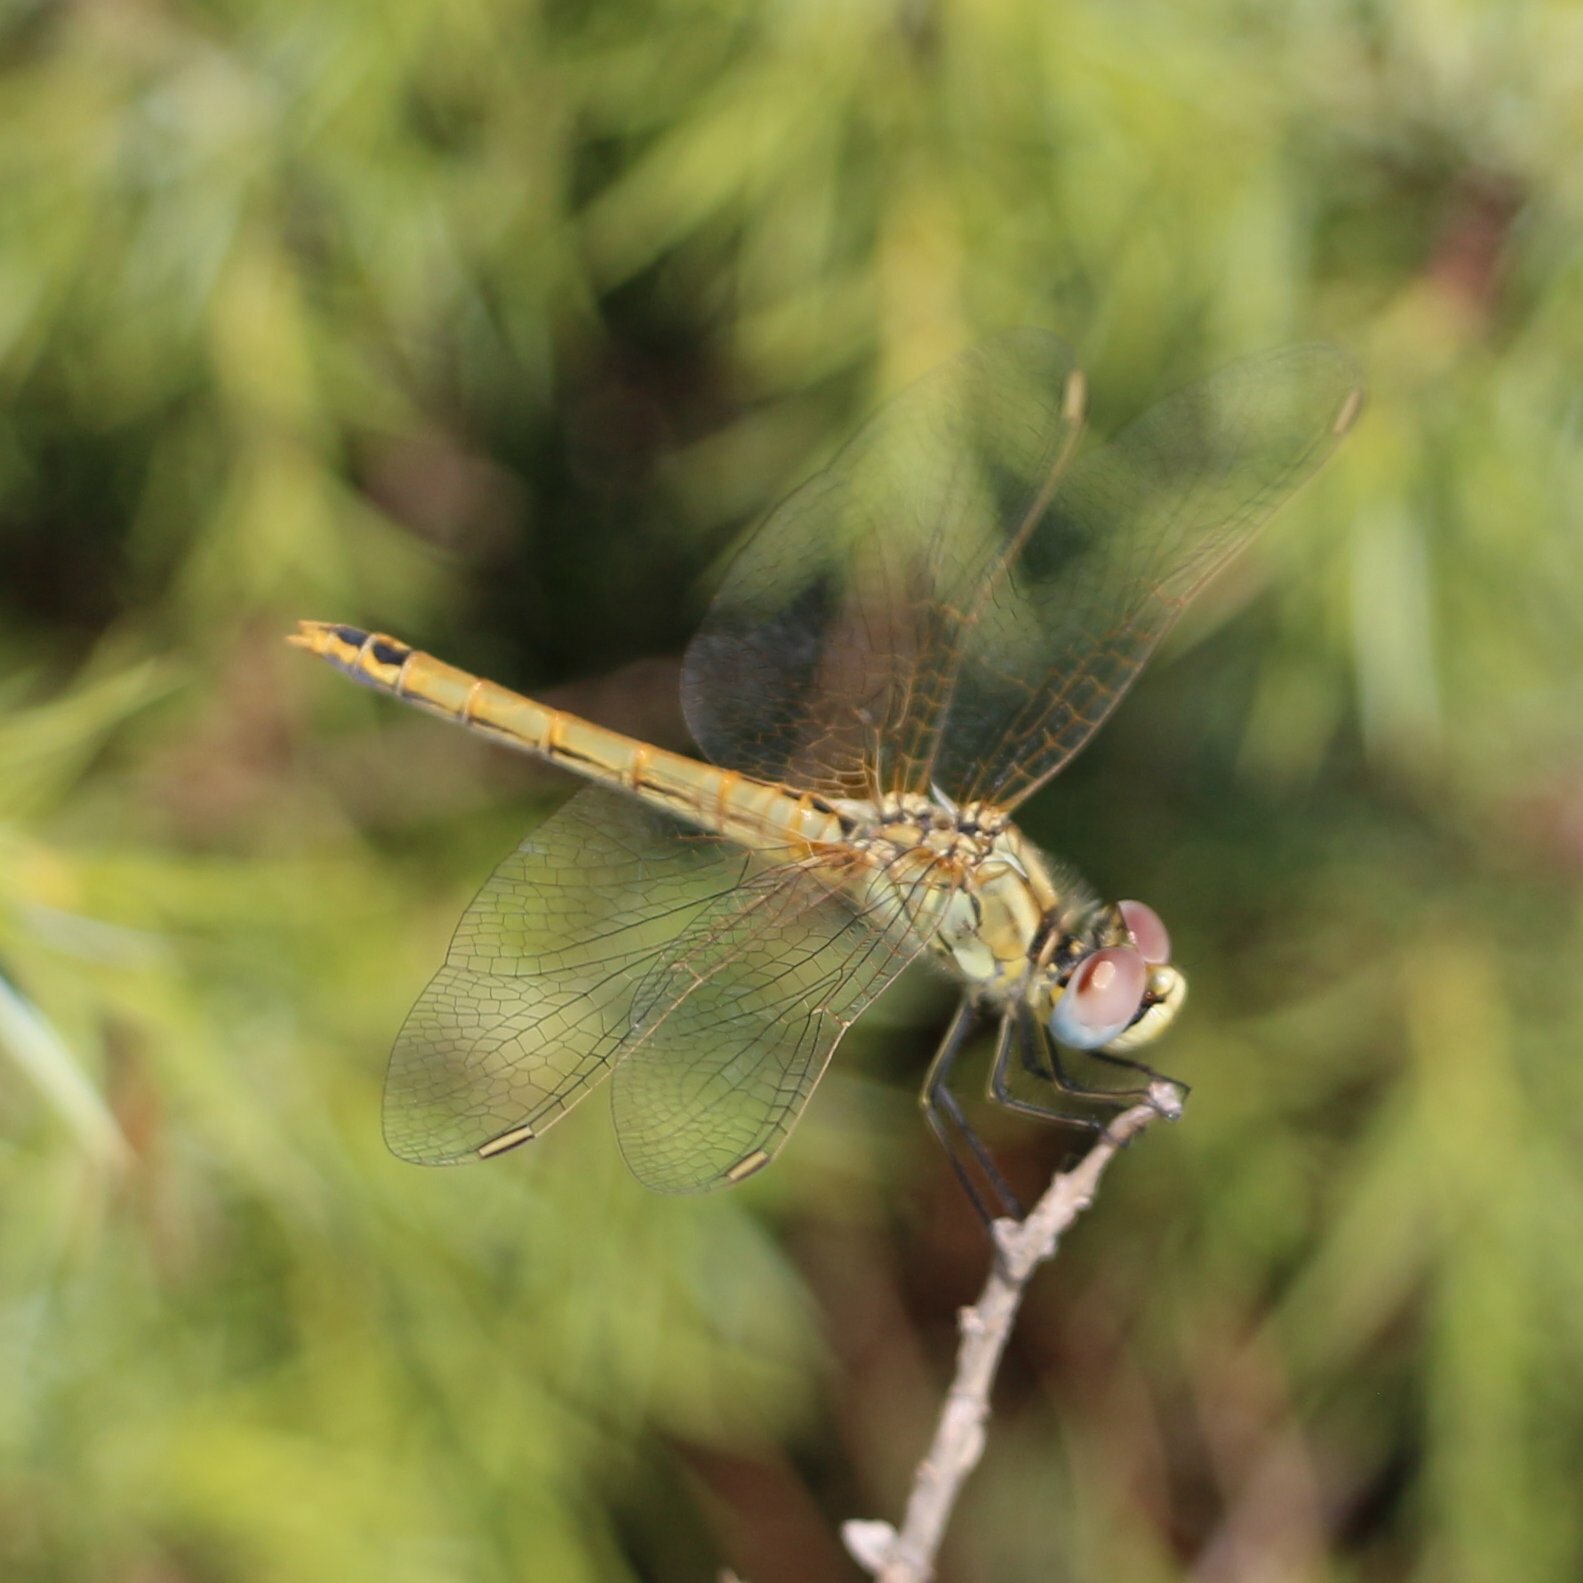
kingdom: Animalia
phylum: Arthropoda
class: Insecta
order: Odonata
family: Libellulidae
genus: Sympetrum
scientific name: Sympetrum fonscolombii
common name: Red-veined darter
